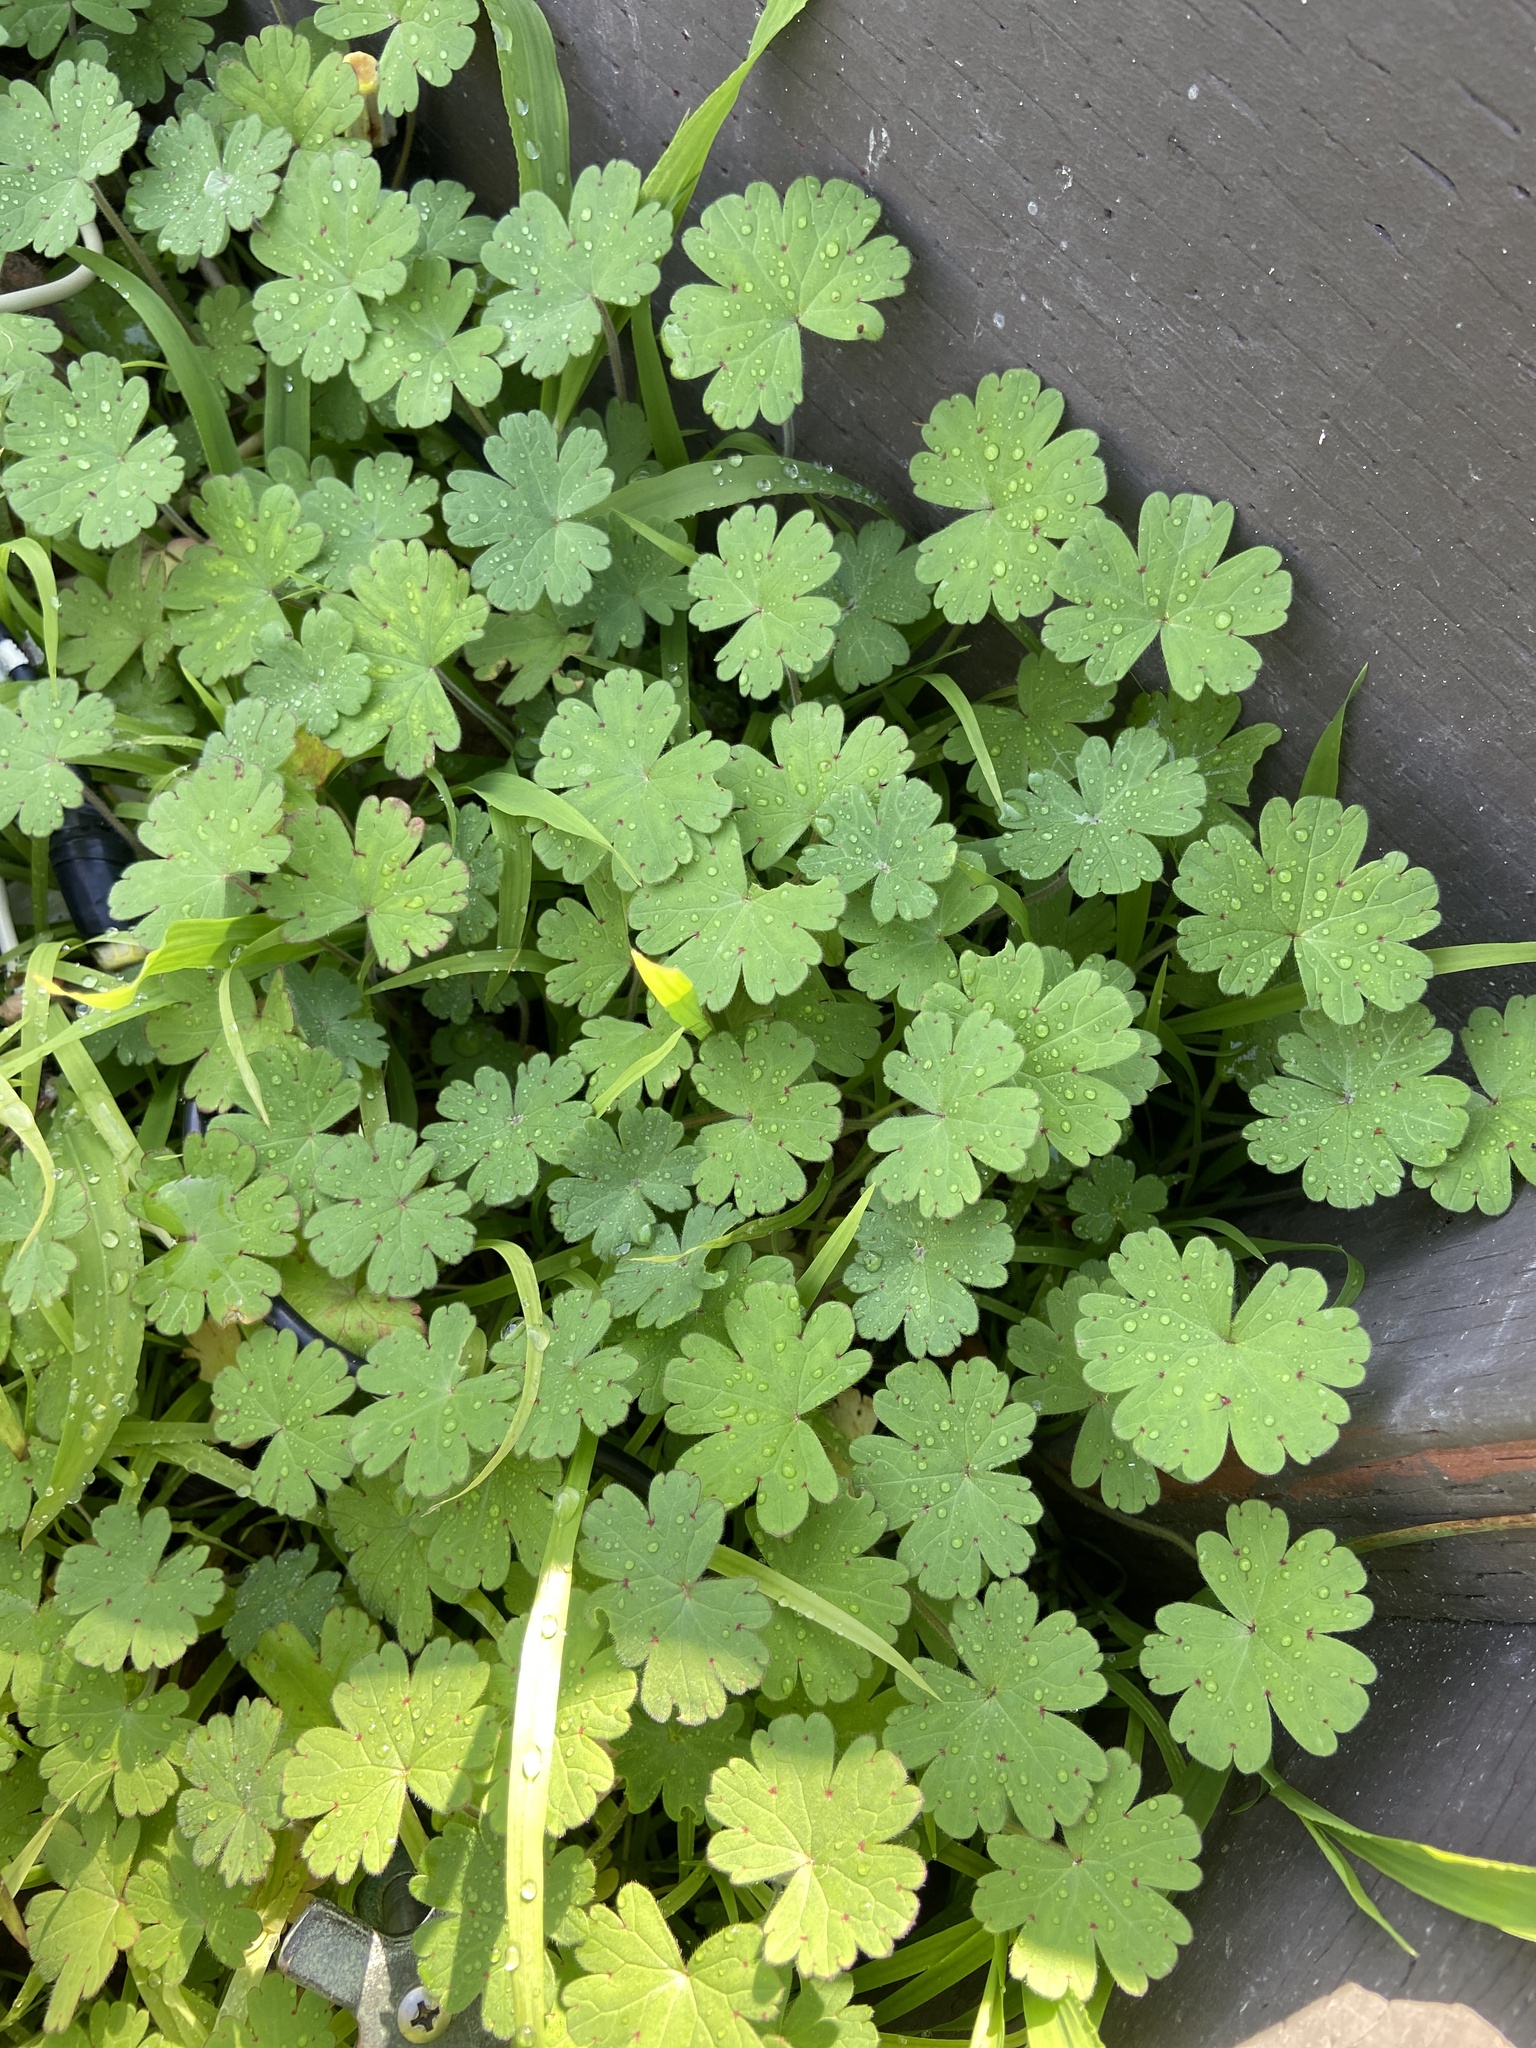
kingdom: Plantae
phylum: Tracheophyta
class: Magnoliopsida
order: Geraniales
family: Geraniaceae
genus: Geranium
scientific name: Geranium
